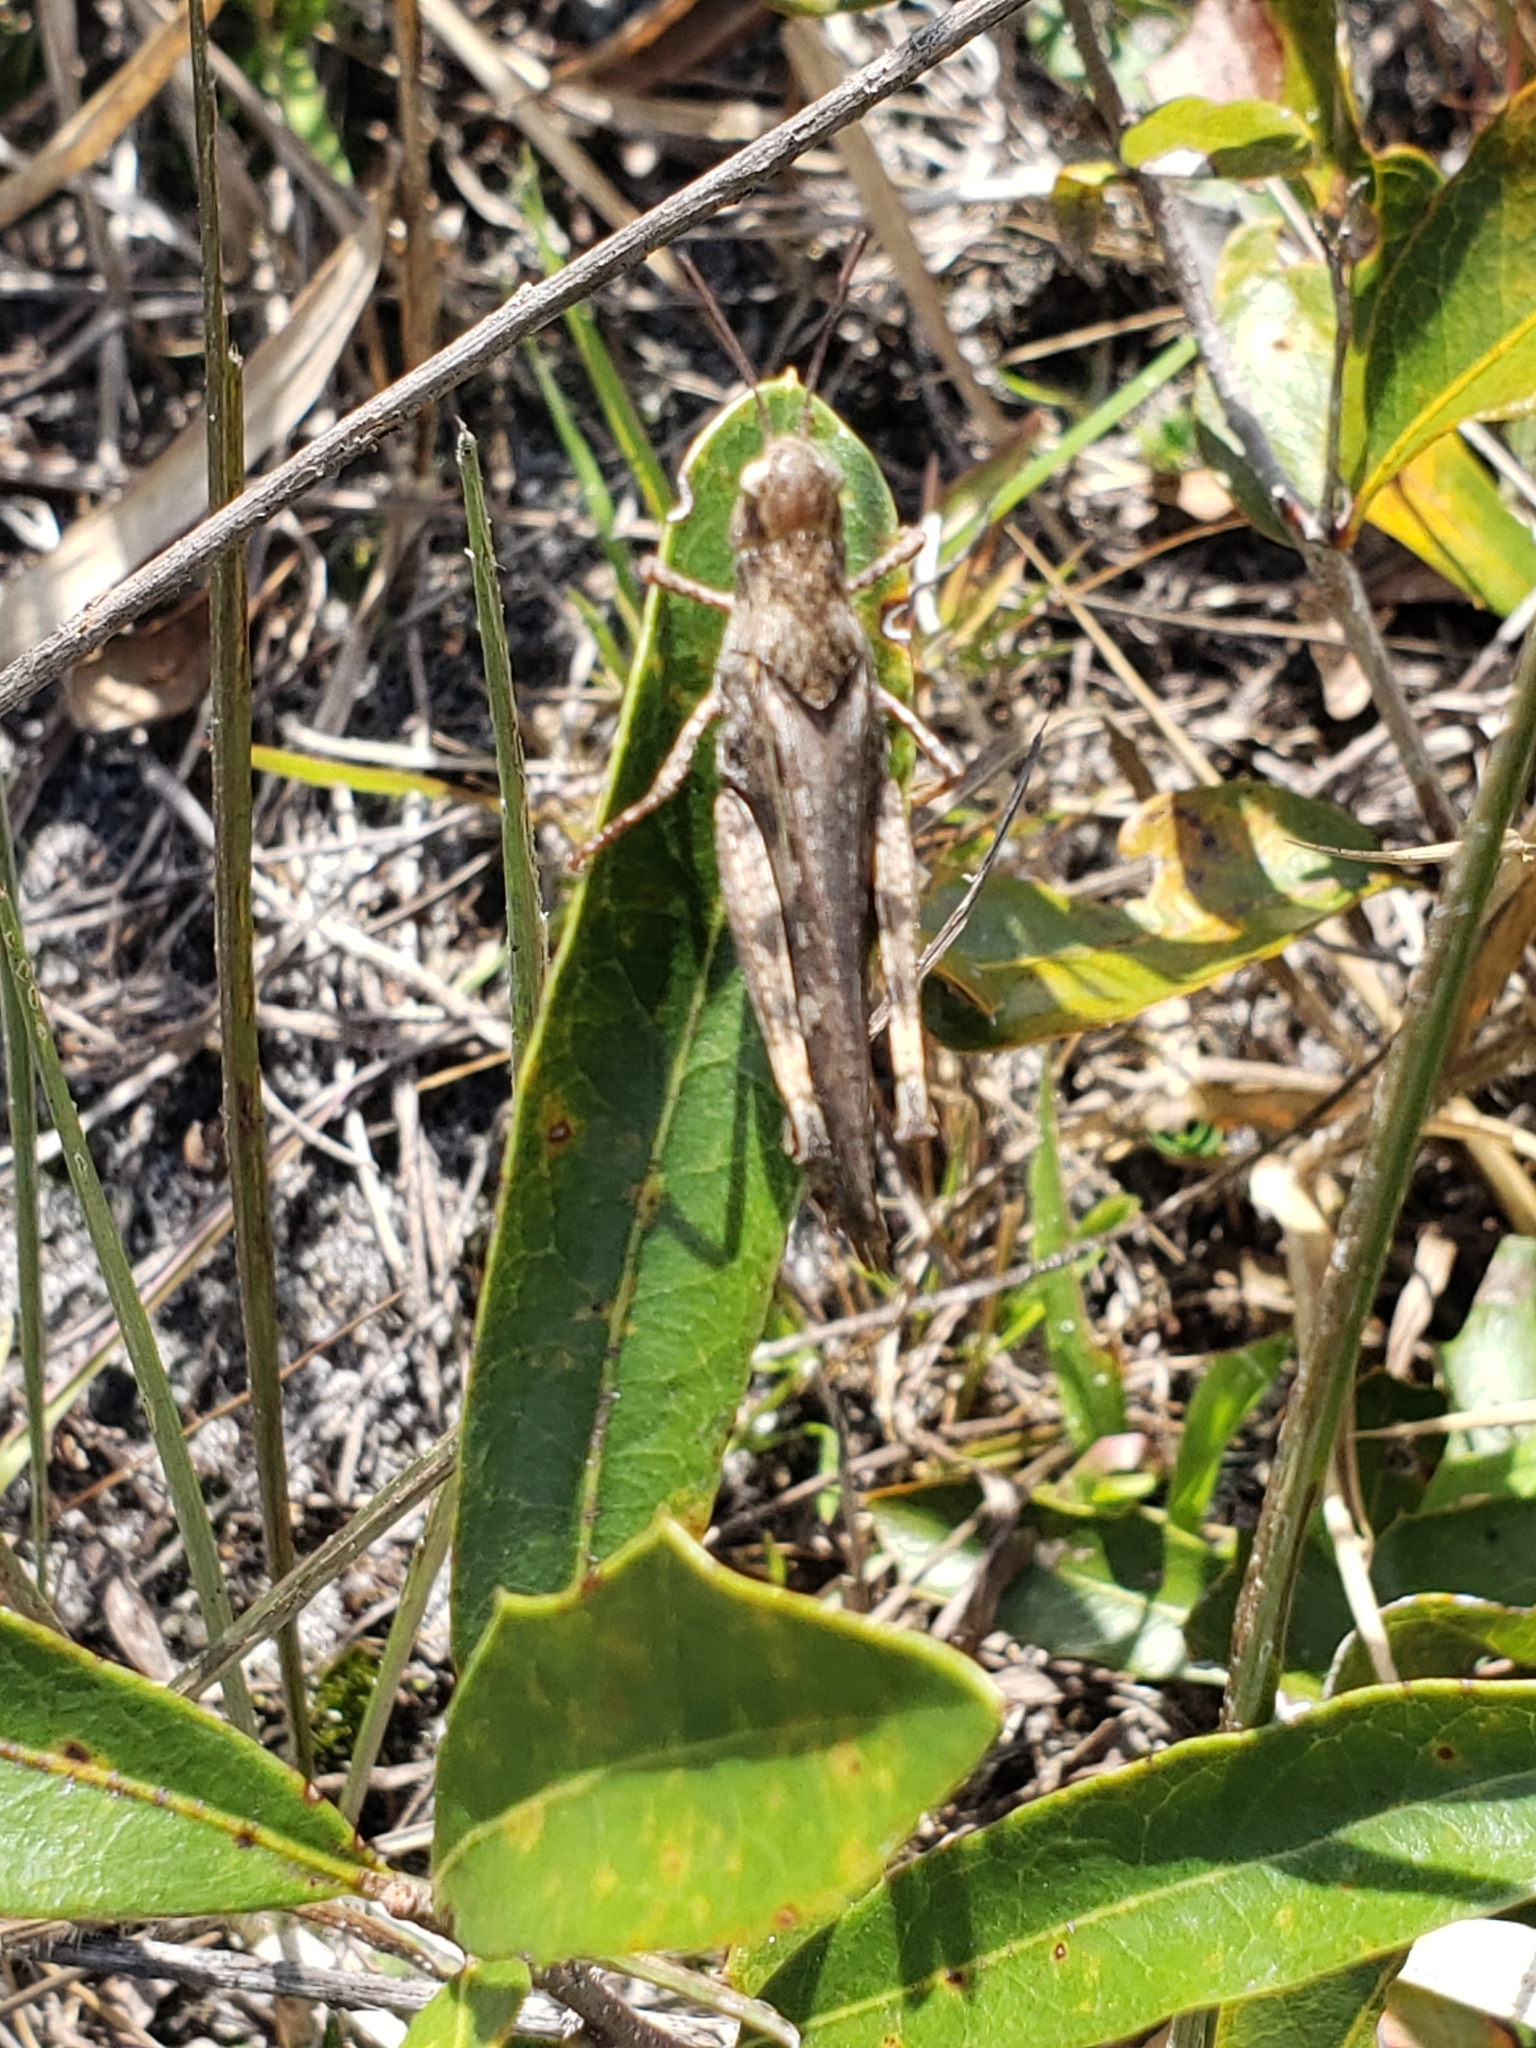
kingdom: Animalia
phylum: Arthropoda
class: Insecta
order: Orthoptera
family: Acrididae
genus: Chortophaga
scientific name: Chortophaga australior
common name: Southern green-striped grasshopper
